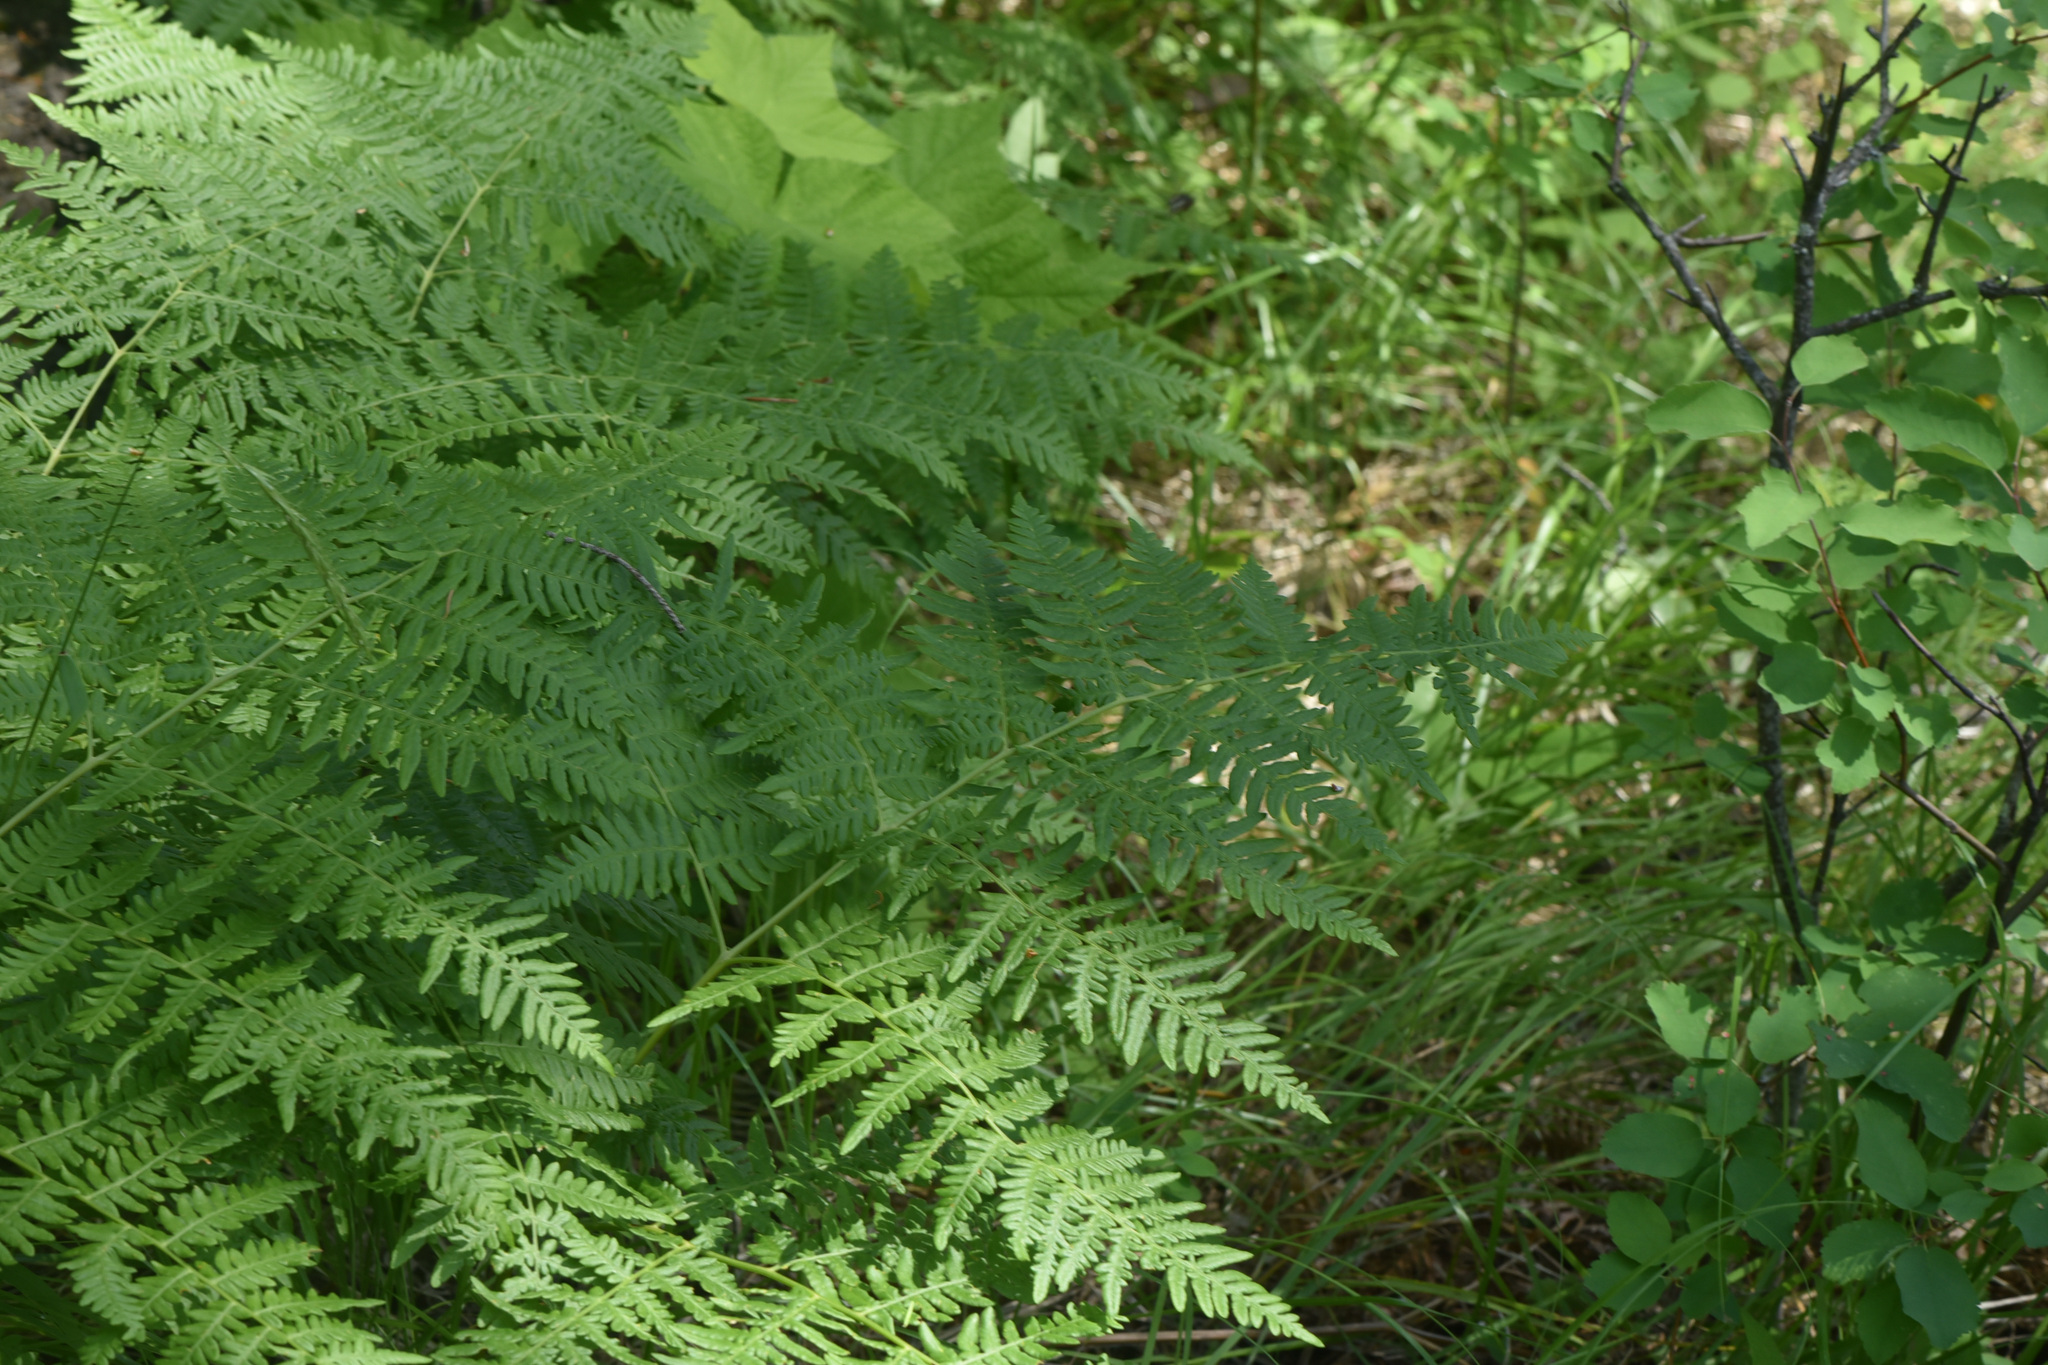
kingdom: Plantae
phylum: Tracheophyta
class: Polypodiopsida
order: Polypodiales
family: Dennstaedtiaceae
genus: Pteridium
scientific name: Pteridium aquilinum
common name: Bracken
